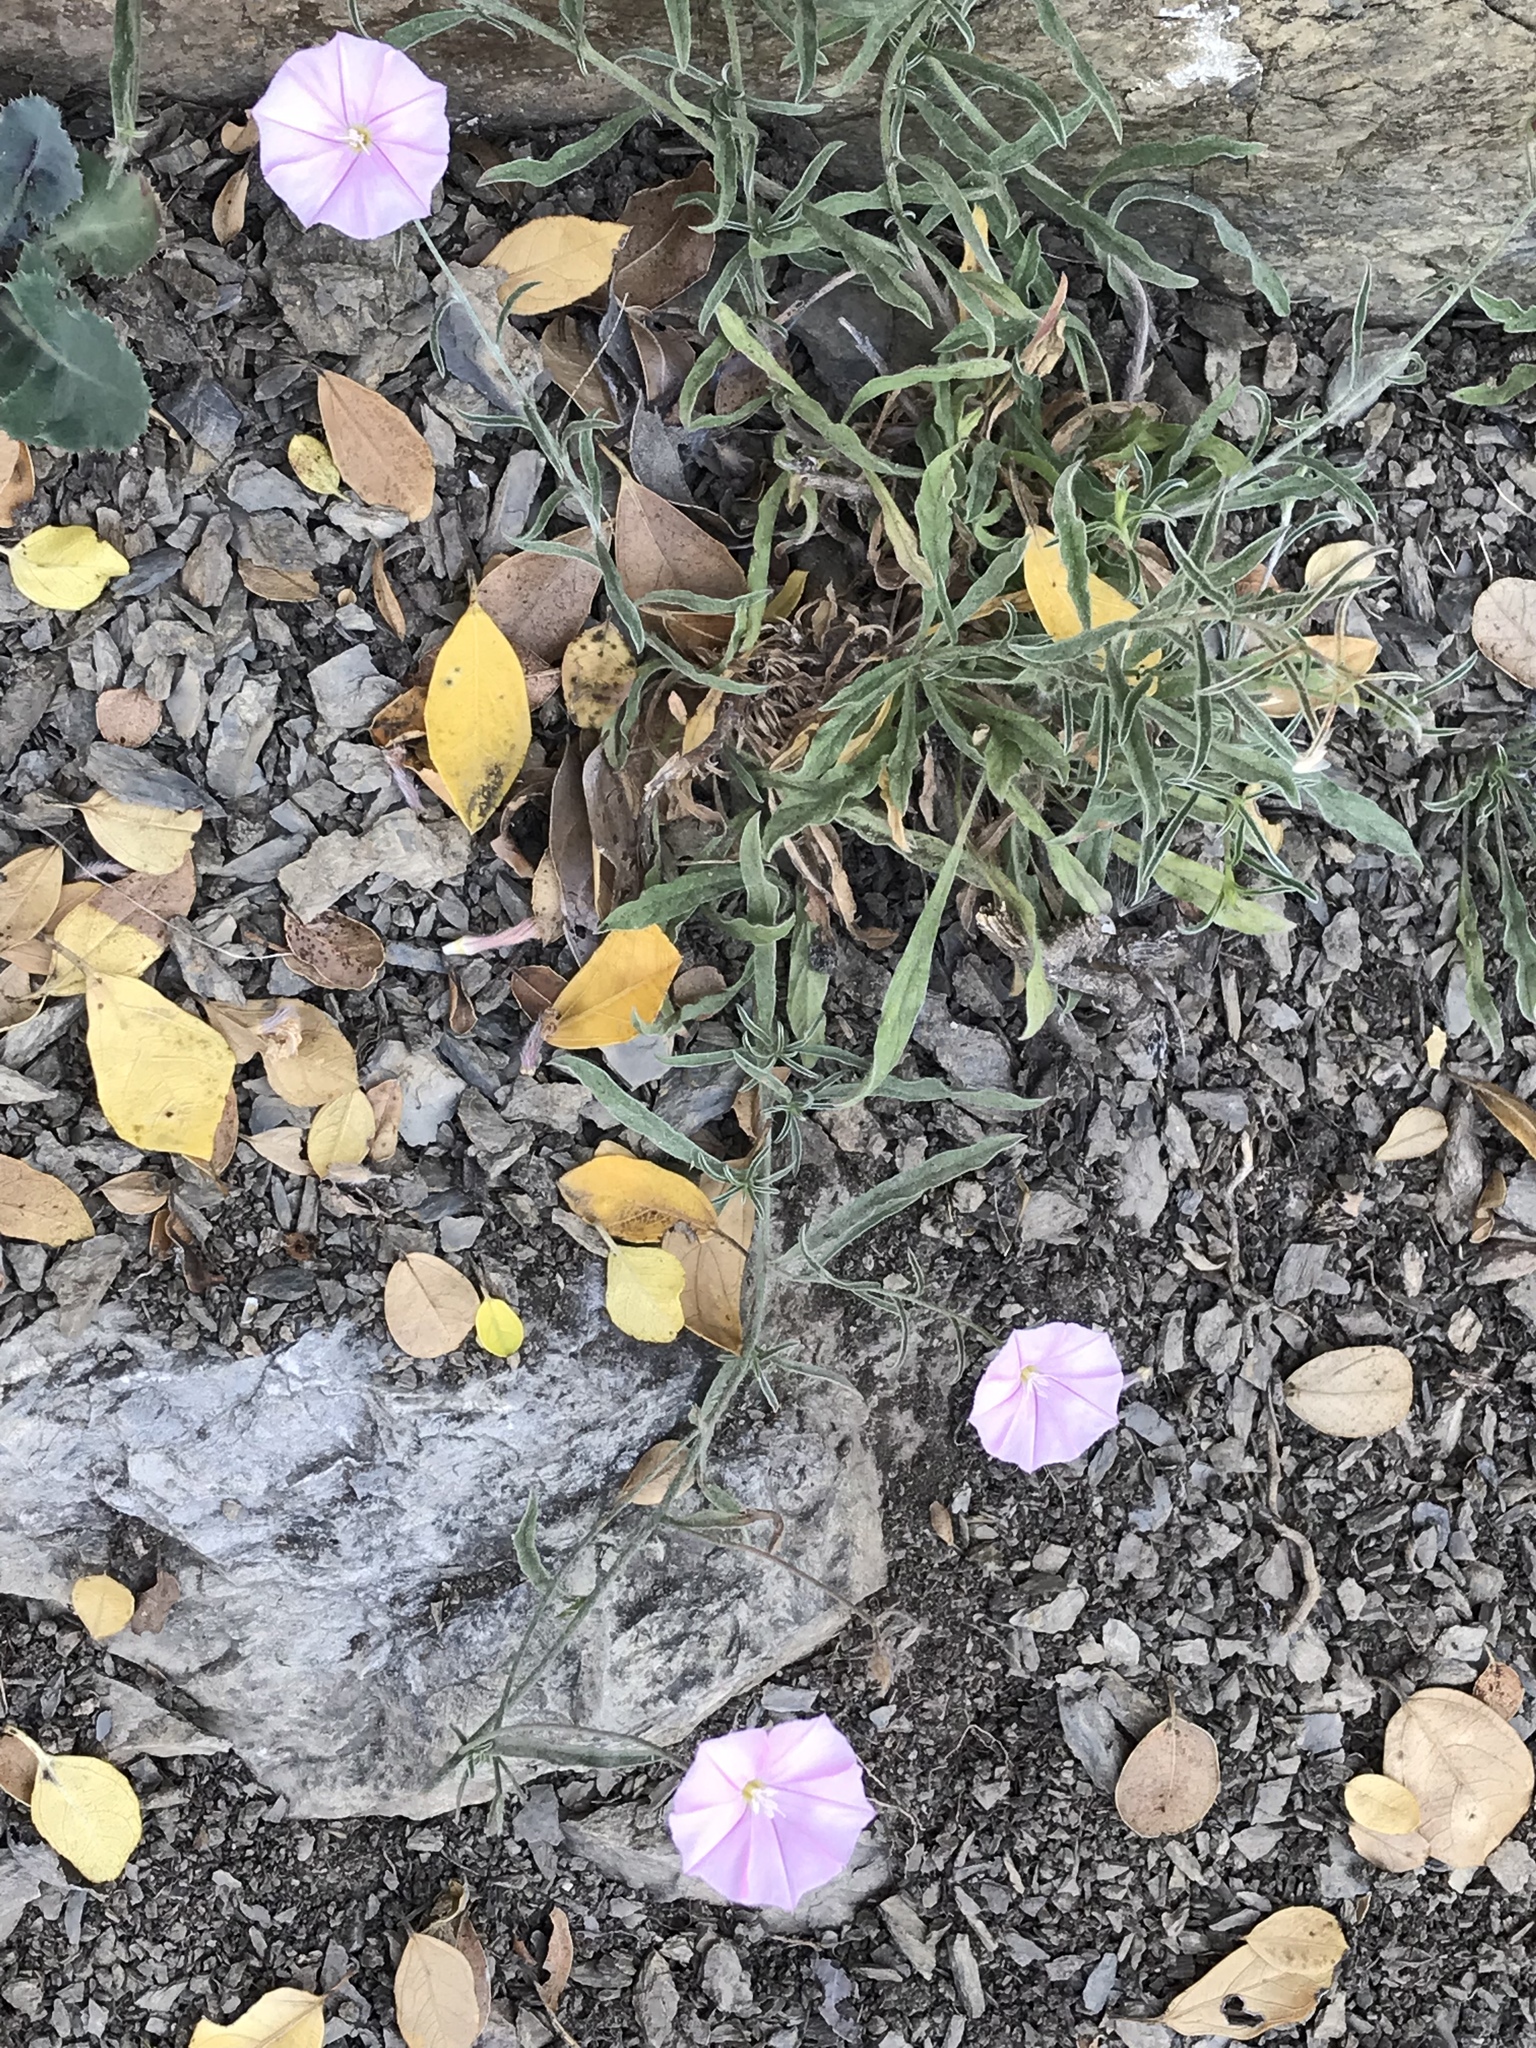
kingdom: Plantae
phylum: Tracheophyta
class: Magnoliopsida
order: Solanales
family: Convolvulaceae
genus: Convolvulus
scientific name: Convolvulus cantabrica
